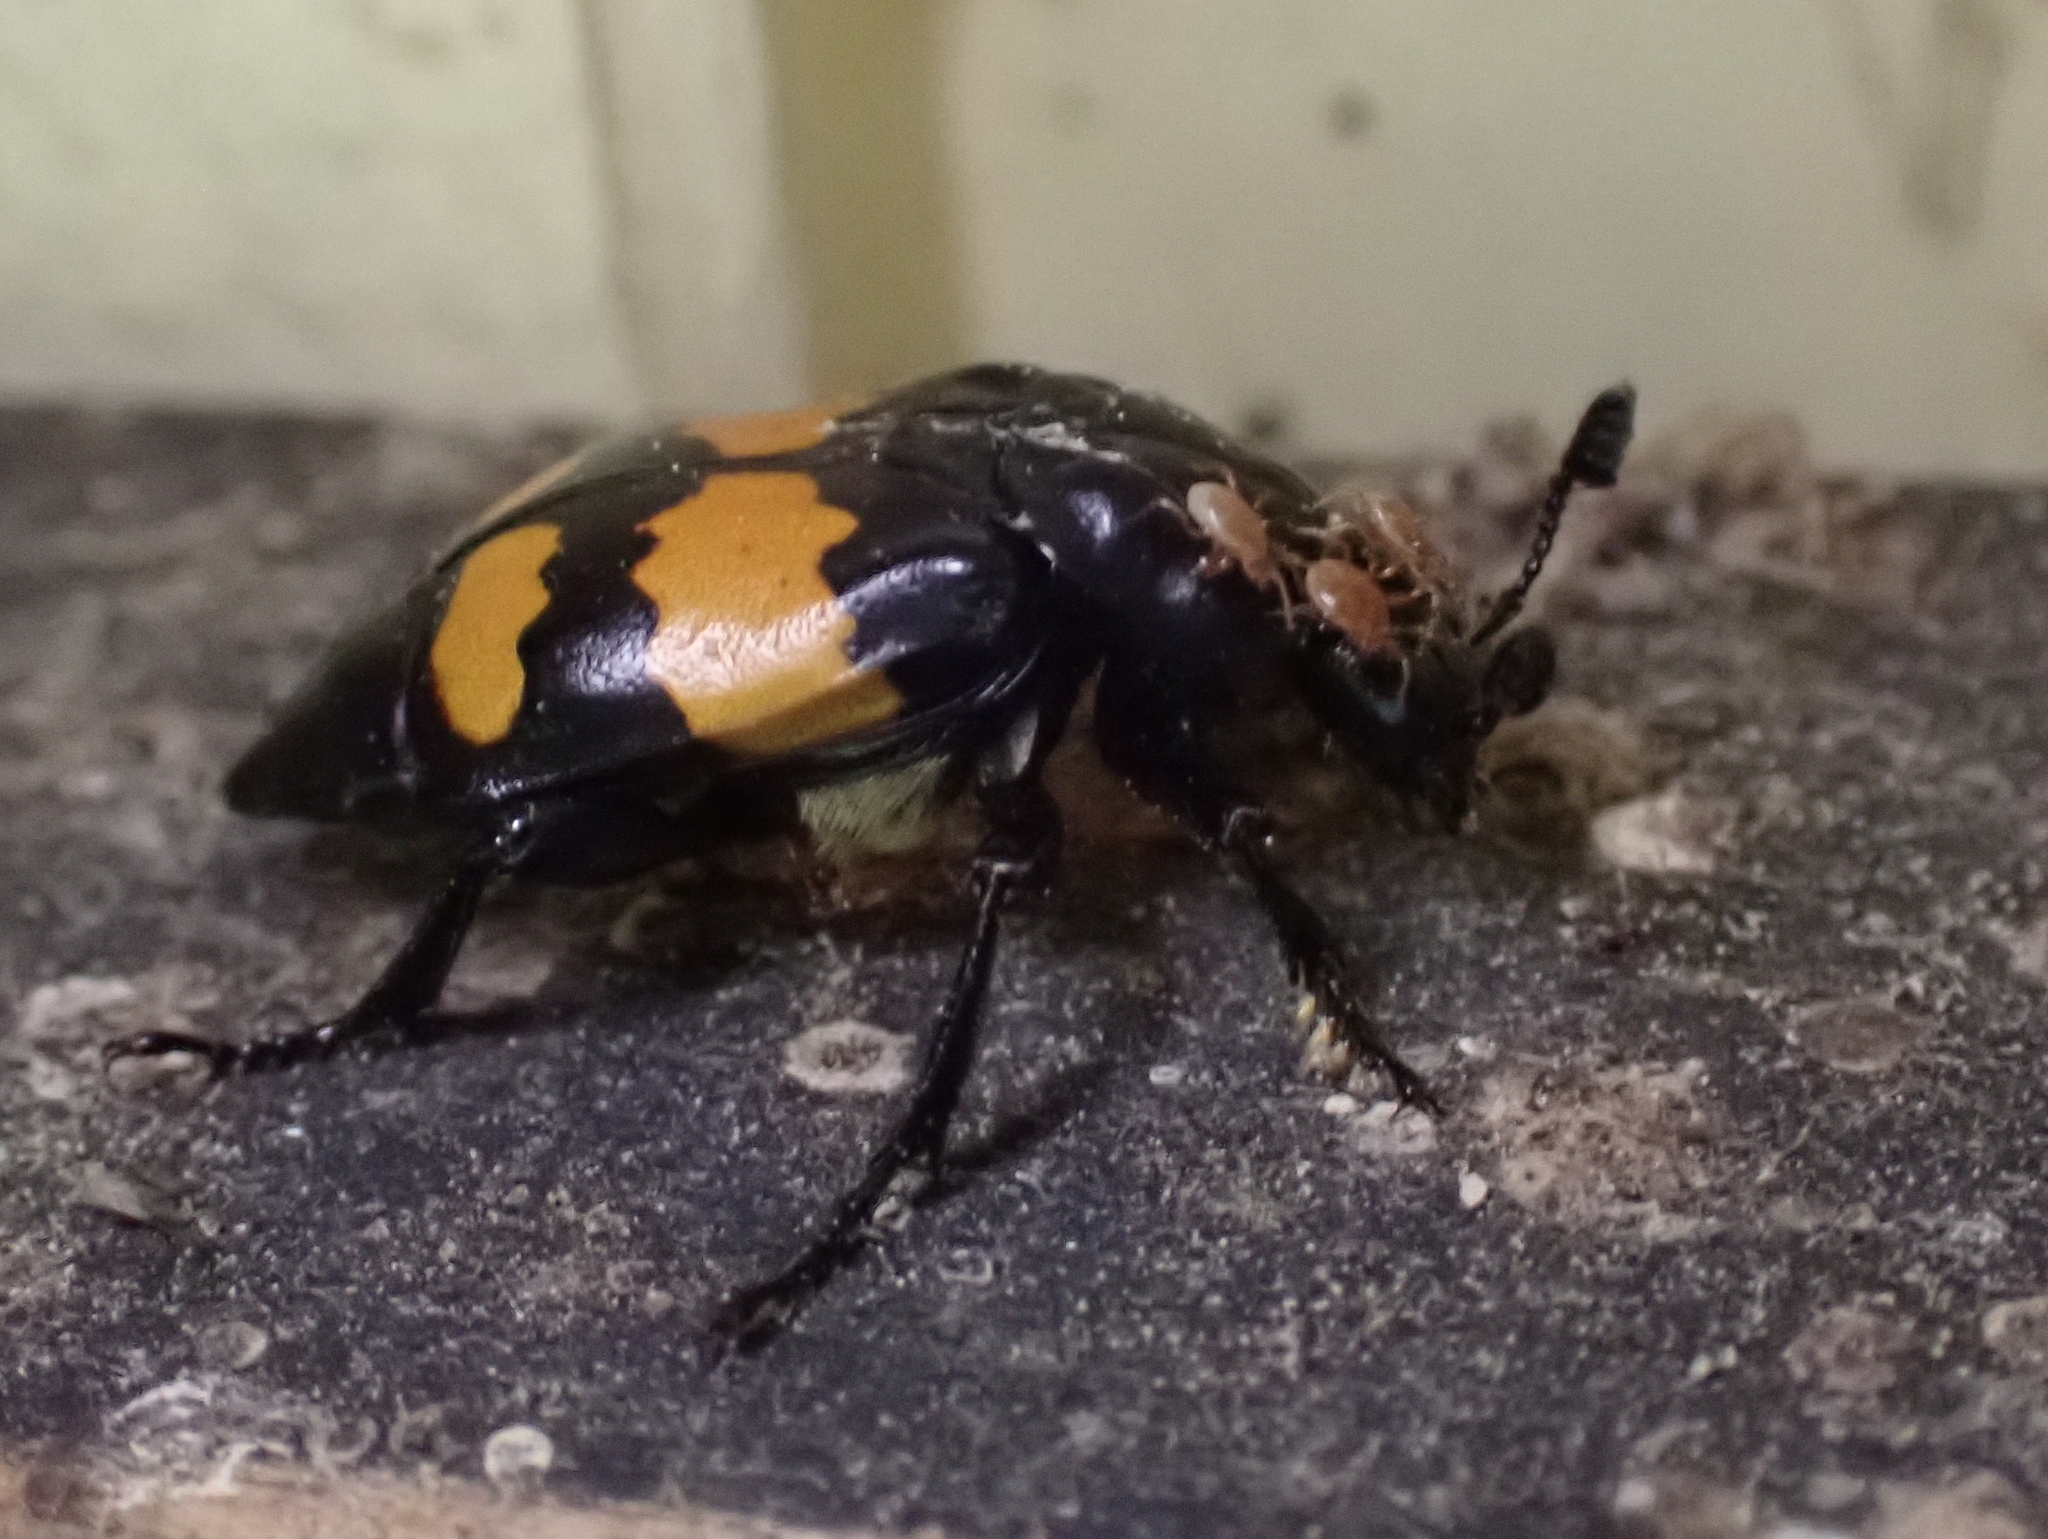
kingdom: Animalia
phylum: Arthropoda
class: Insecta
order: Coleoptera
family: Staphylinidae
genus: Nicrophorus
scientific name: Nicrophorus defodiens
